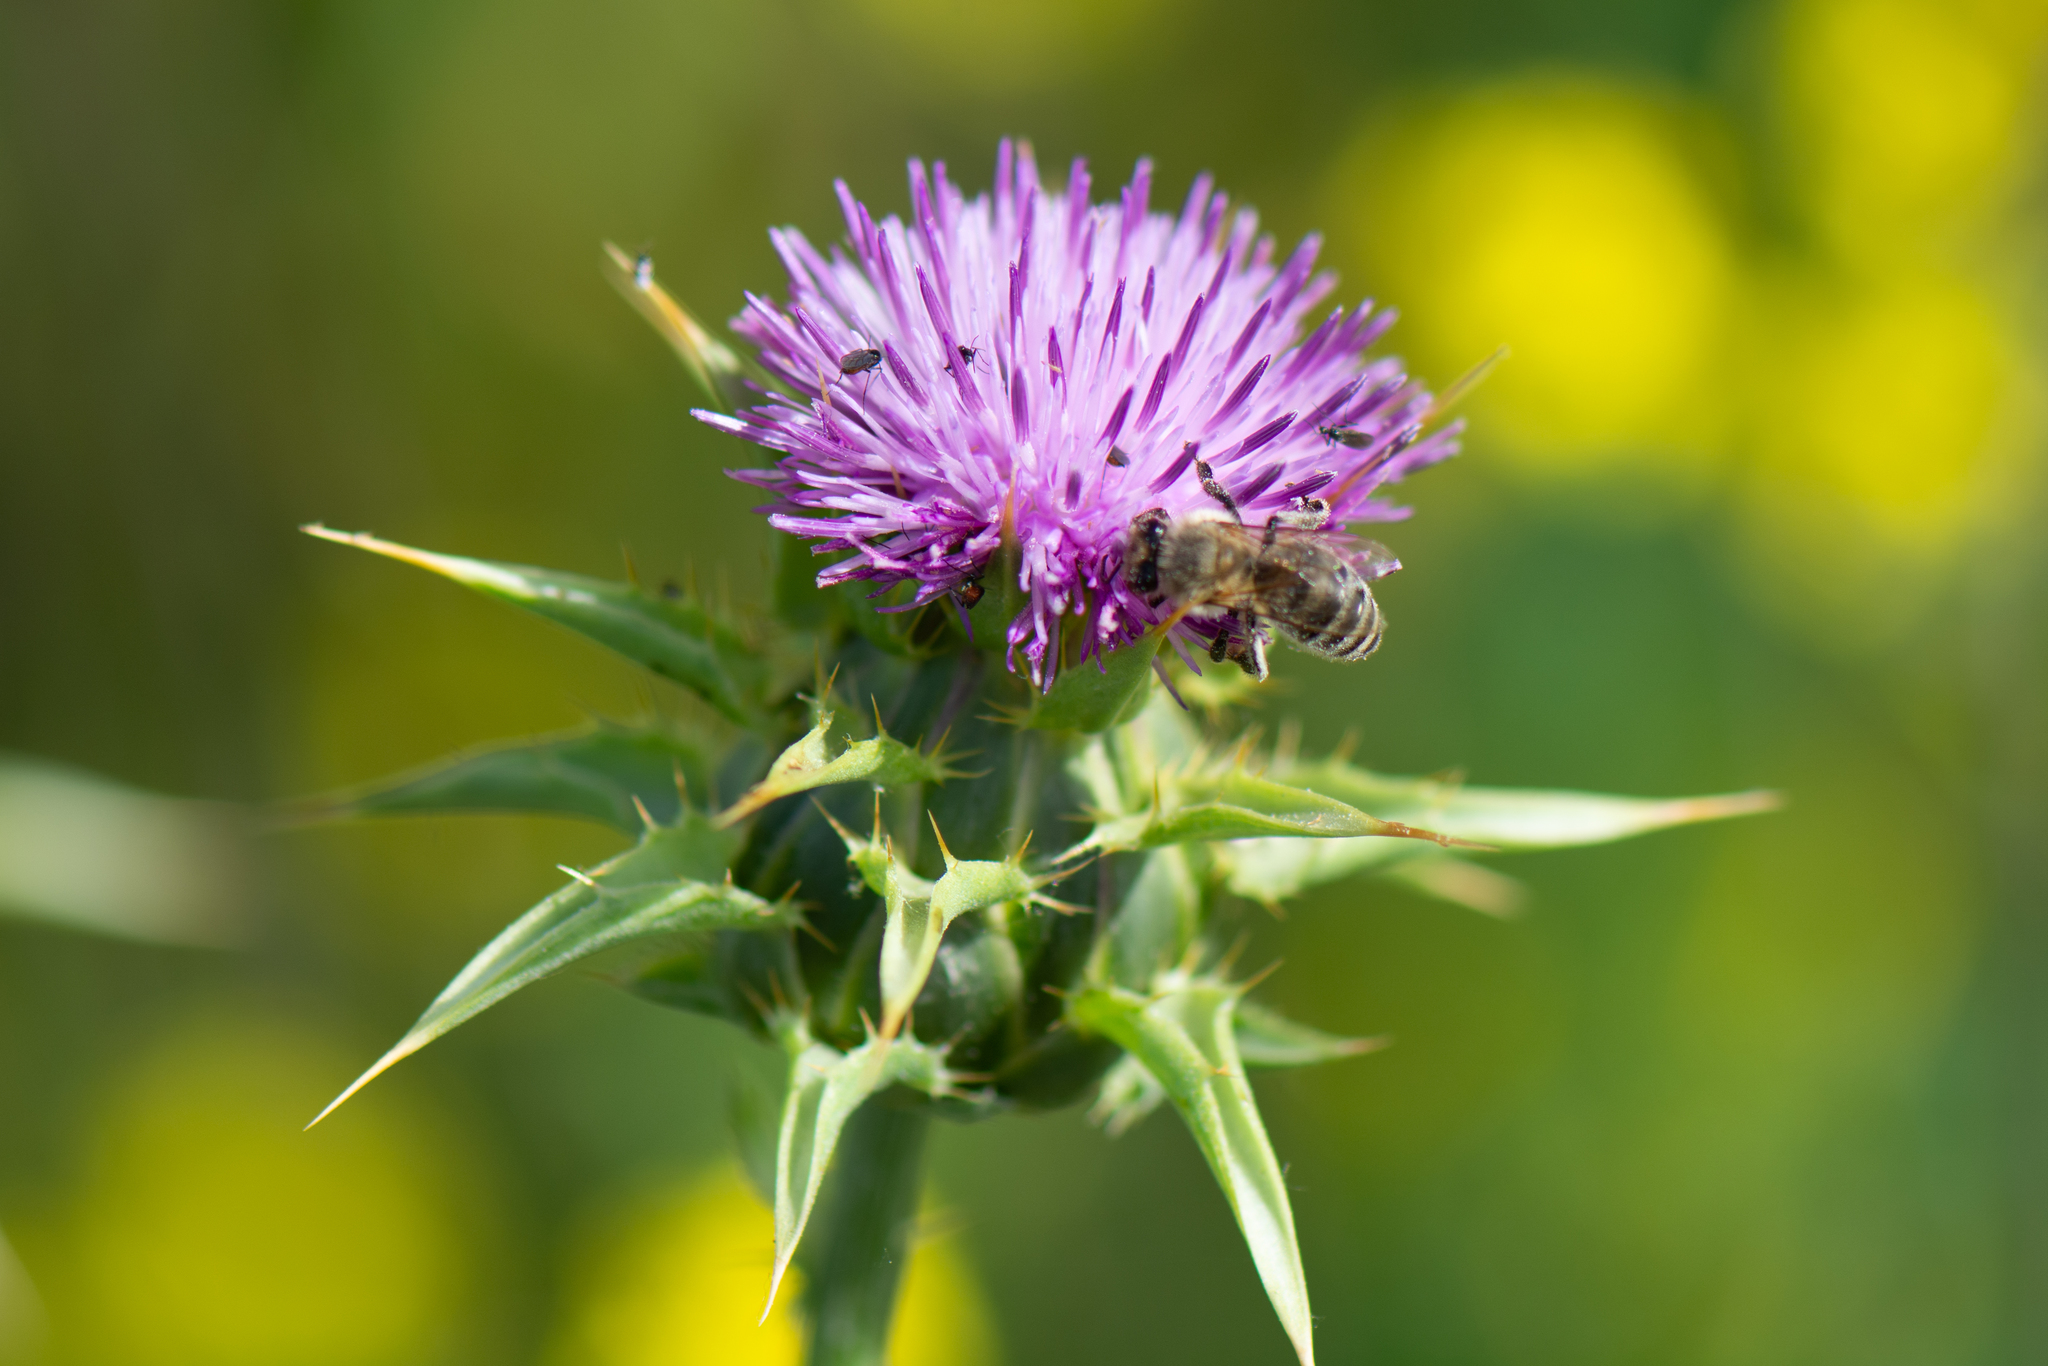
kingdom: Plantae
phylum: Tracheophyta
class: Magnoliopsida
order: Asterales
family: Asteraceae
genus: Silybum
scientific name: Silybum marianum
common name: Milk thistle
